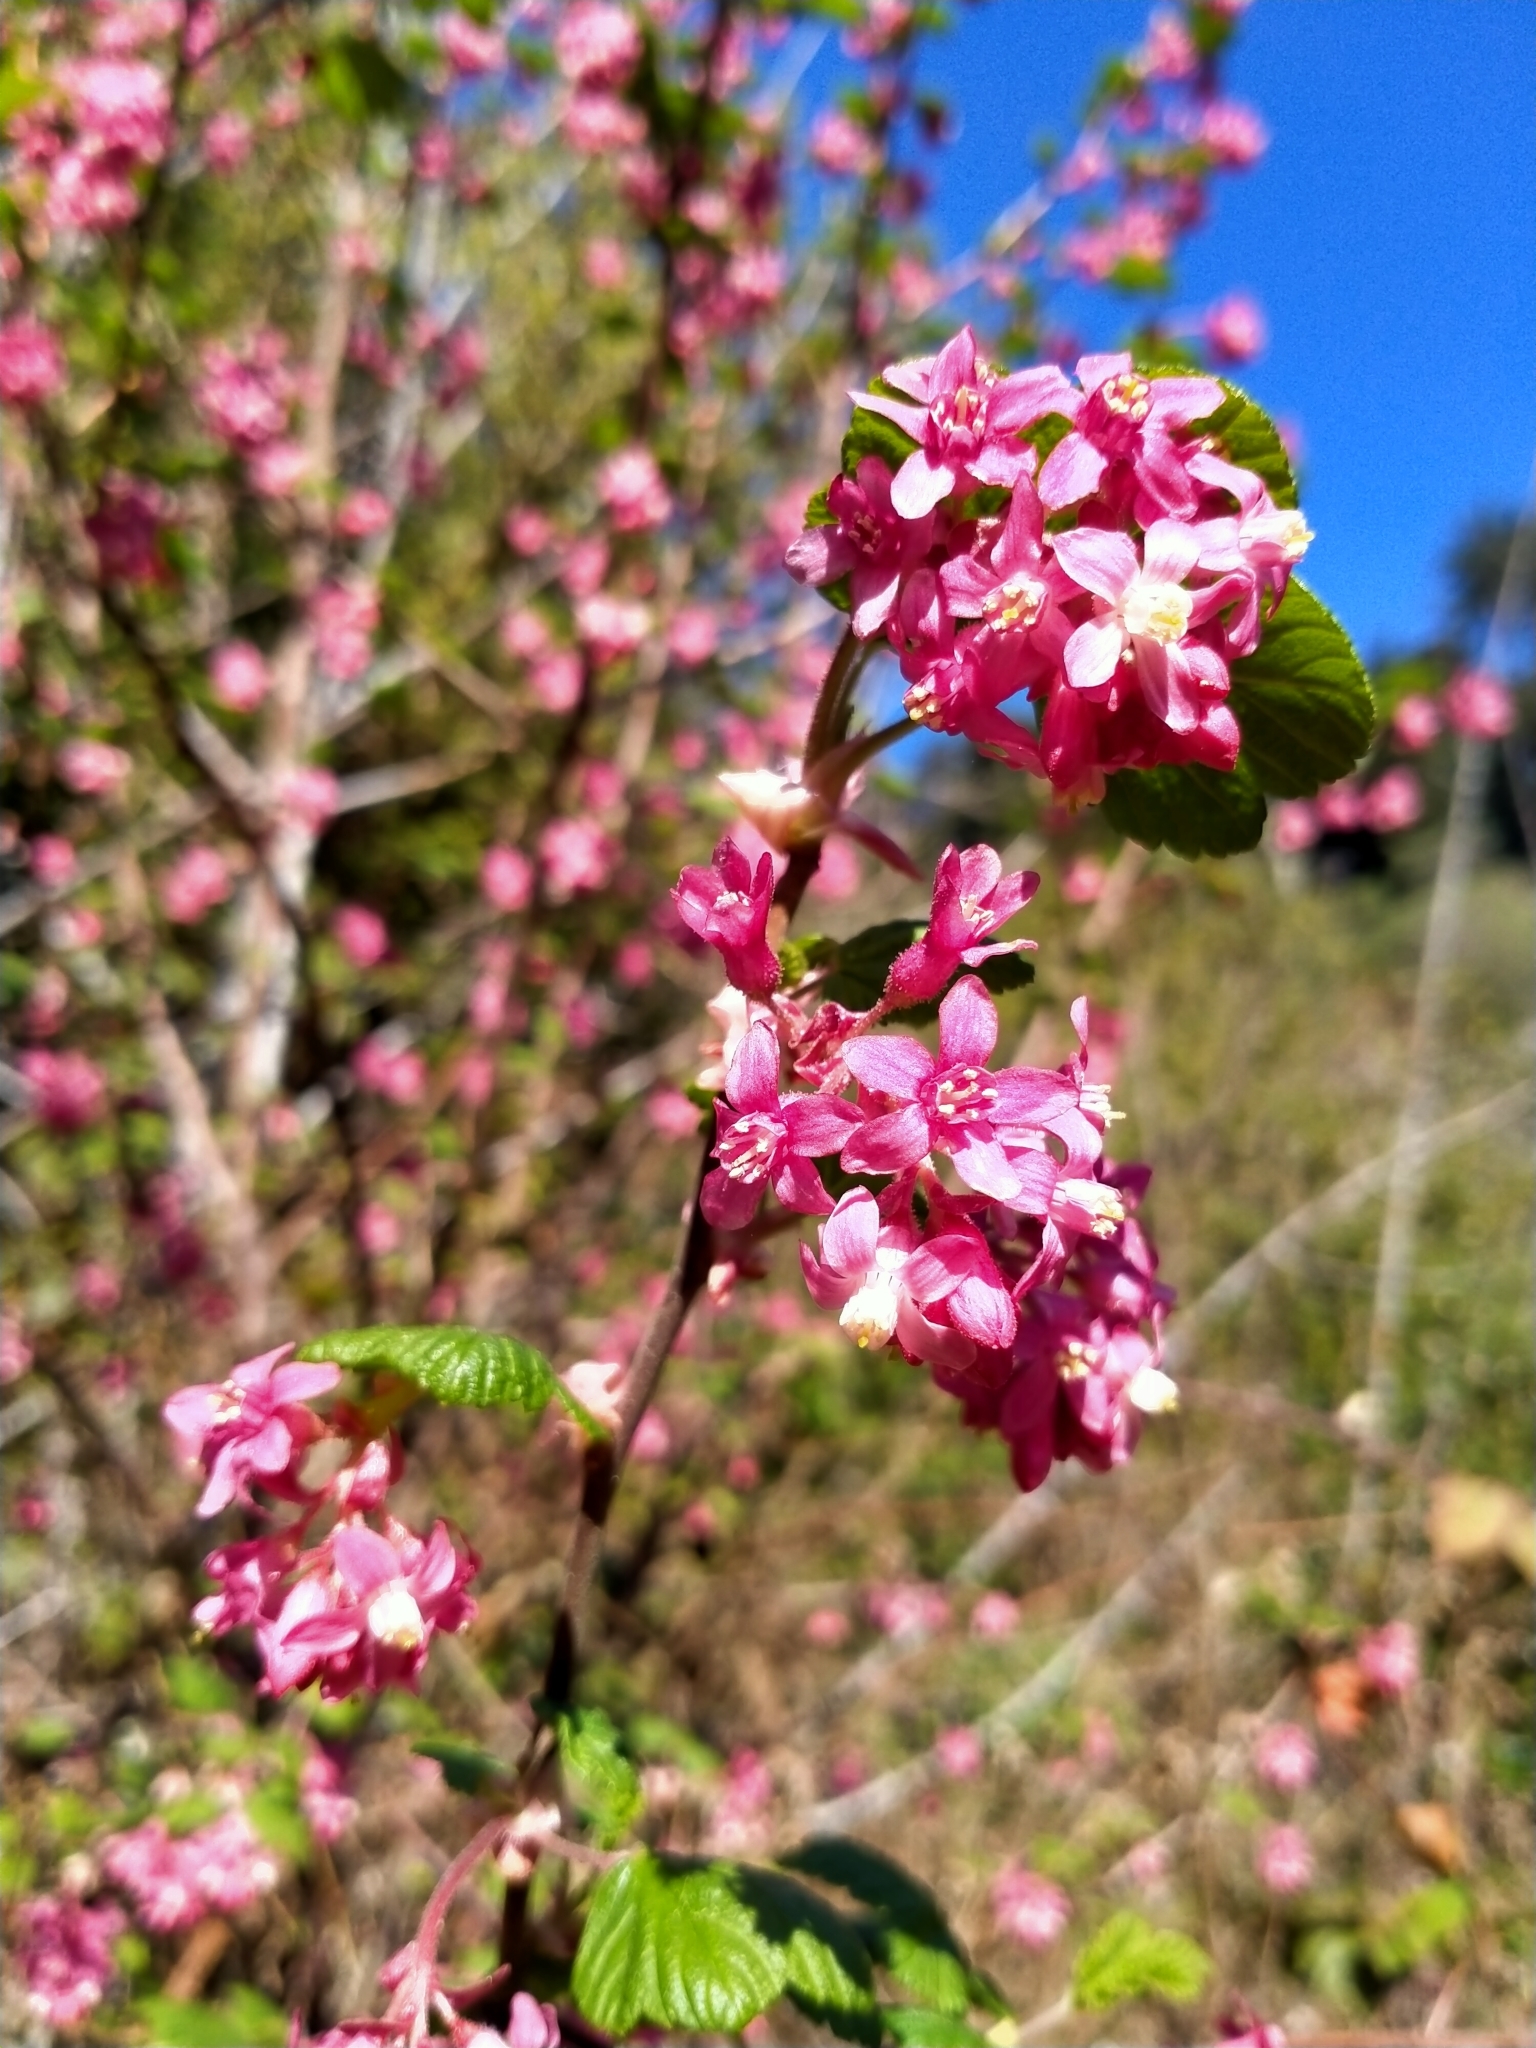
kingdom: Plantae
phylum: Tracheophyta
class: Magnoliopsida
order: Saxifragales
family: Grossulariaceae
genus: Ribes
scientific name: Ribes sanguineum
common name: Flowering currant
